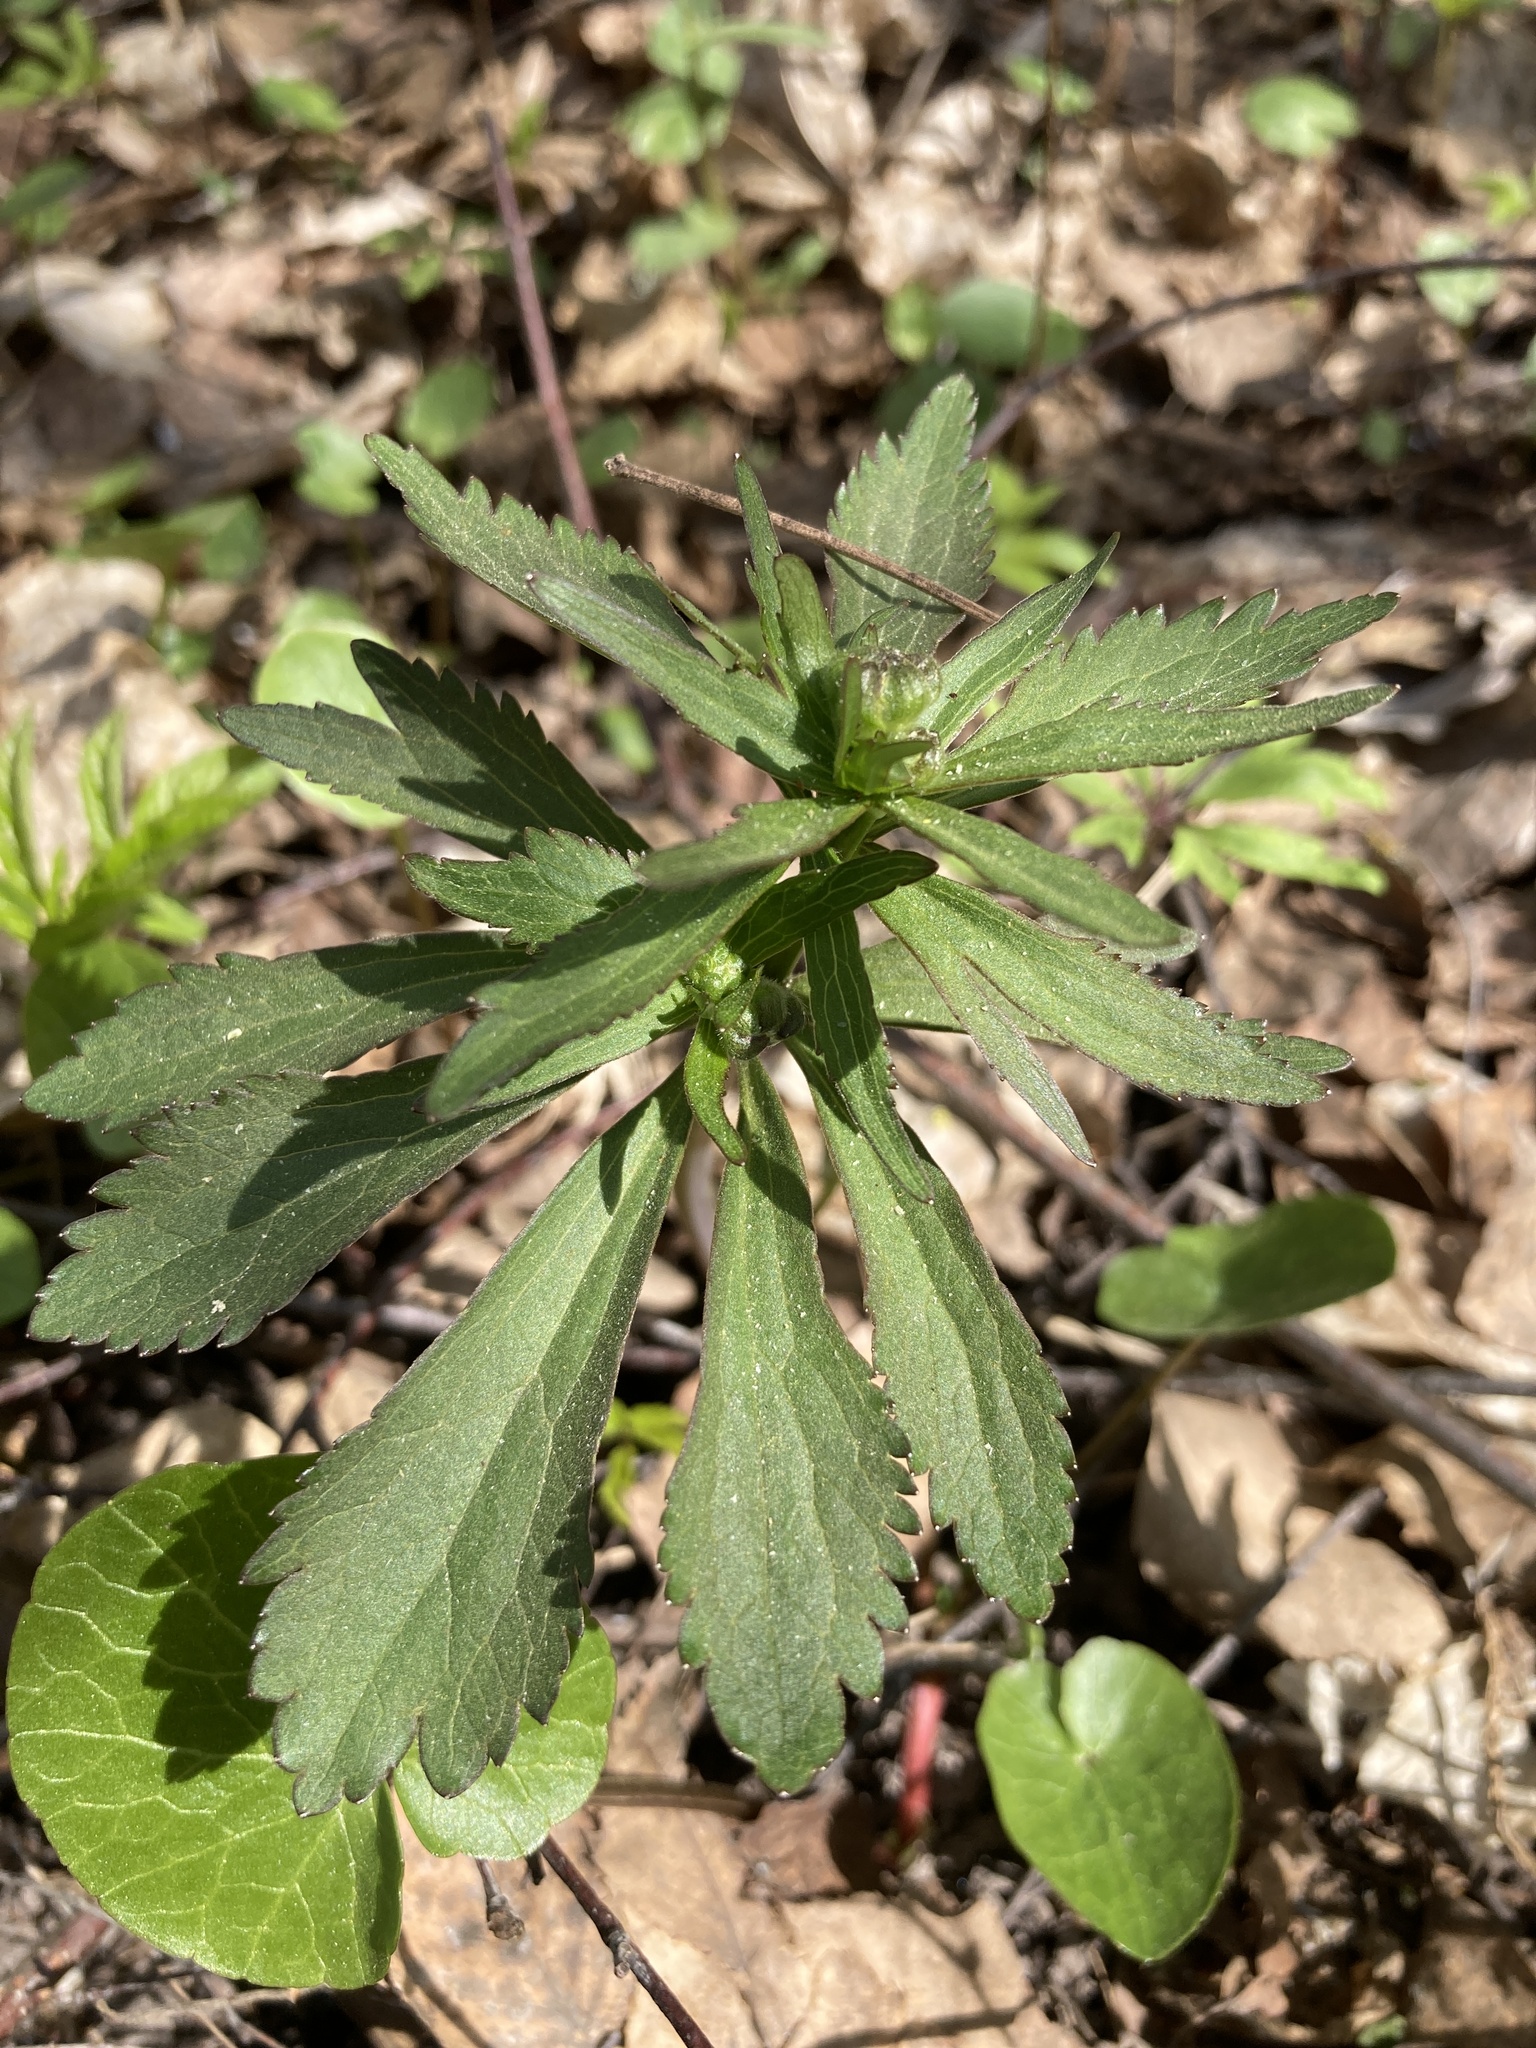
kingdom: Plantae
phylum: Tracheophyta
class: Magnoliopsida
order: Ranunculales
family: Ranunculaceae
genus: Ranunculus
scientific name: Ranunculus cassubicus
